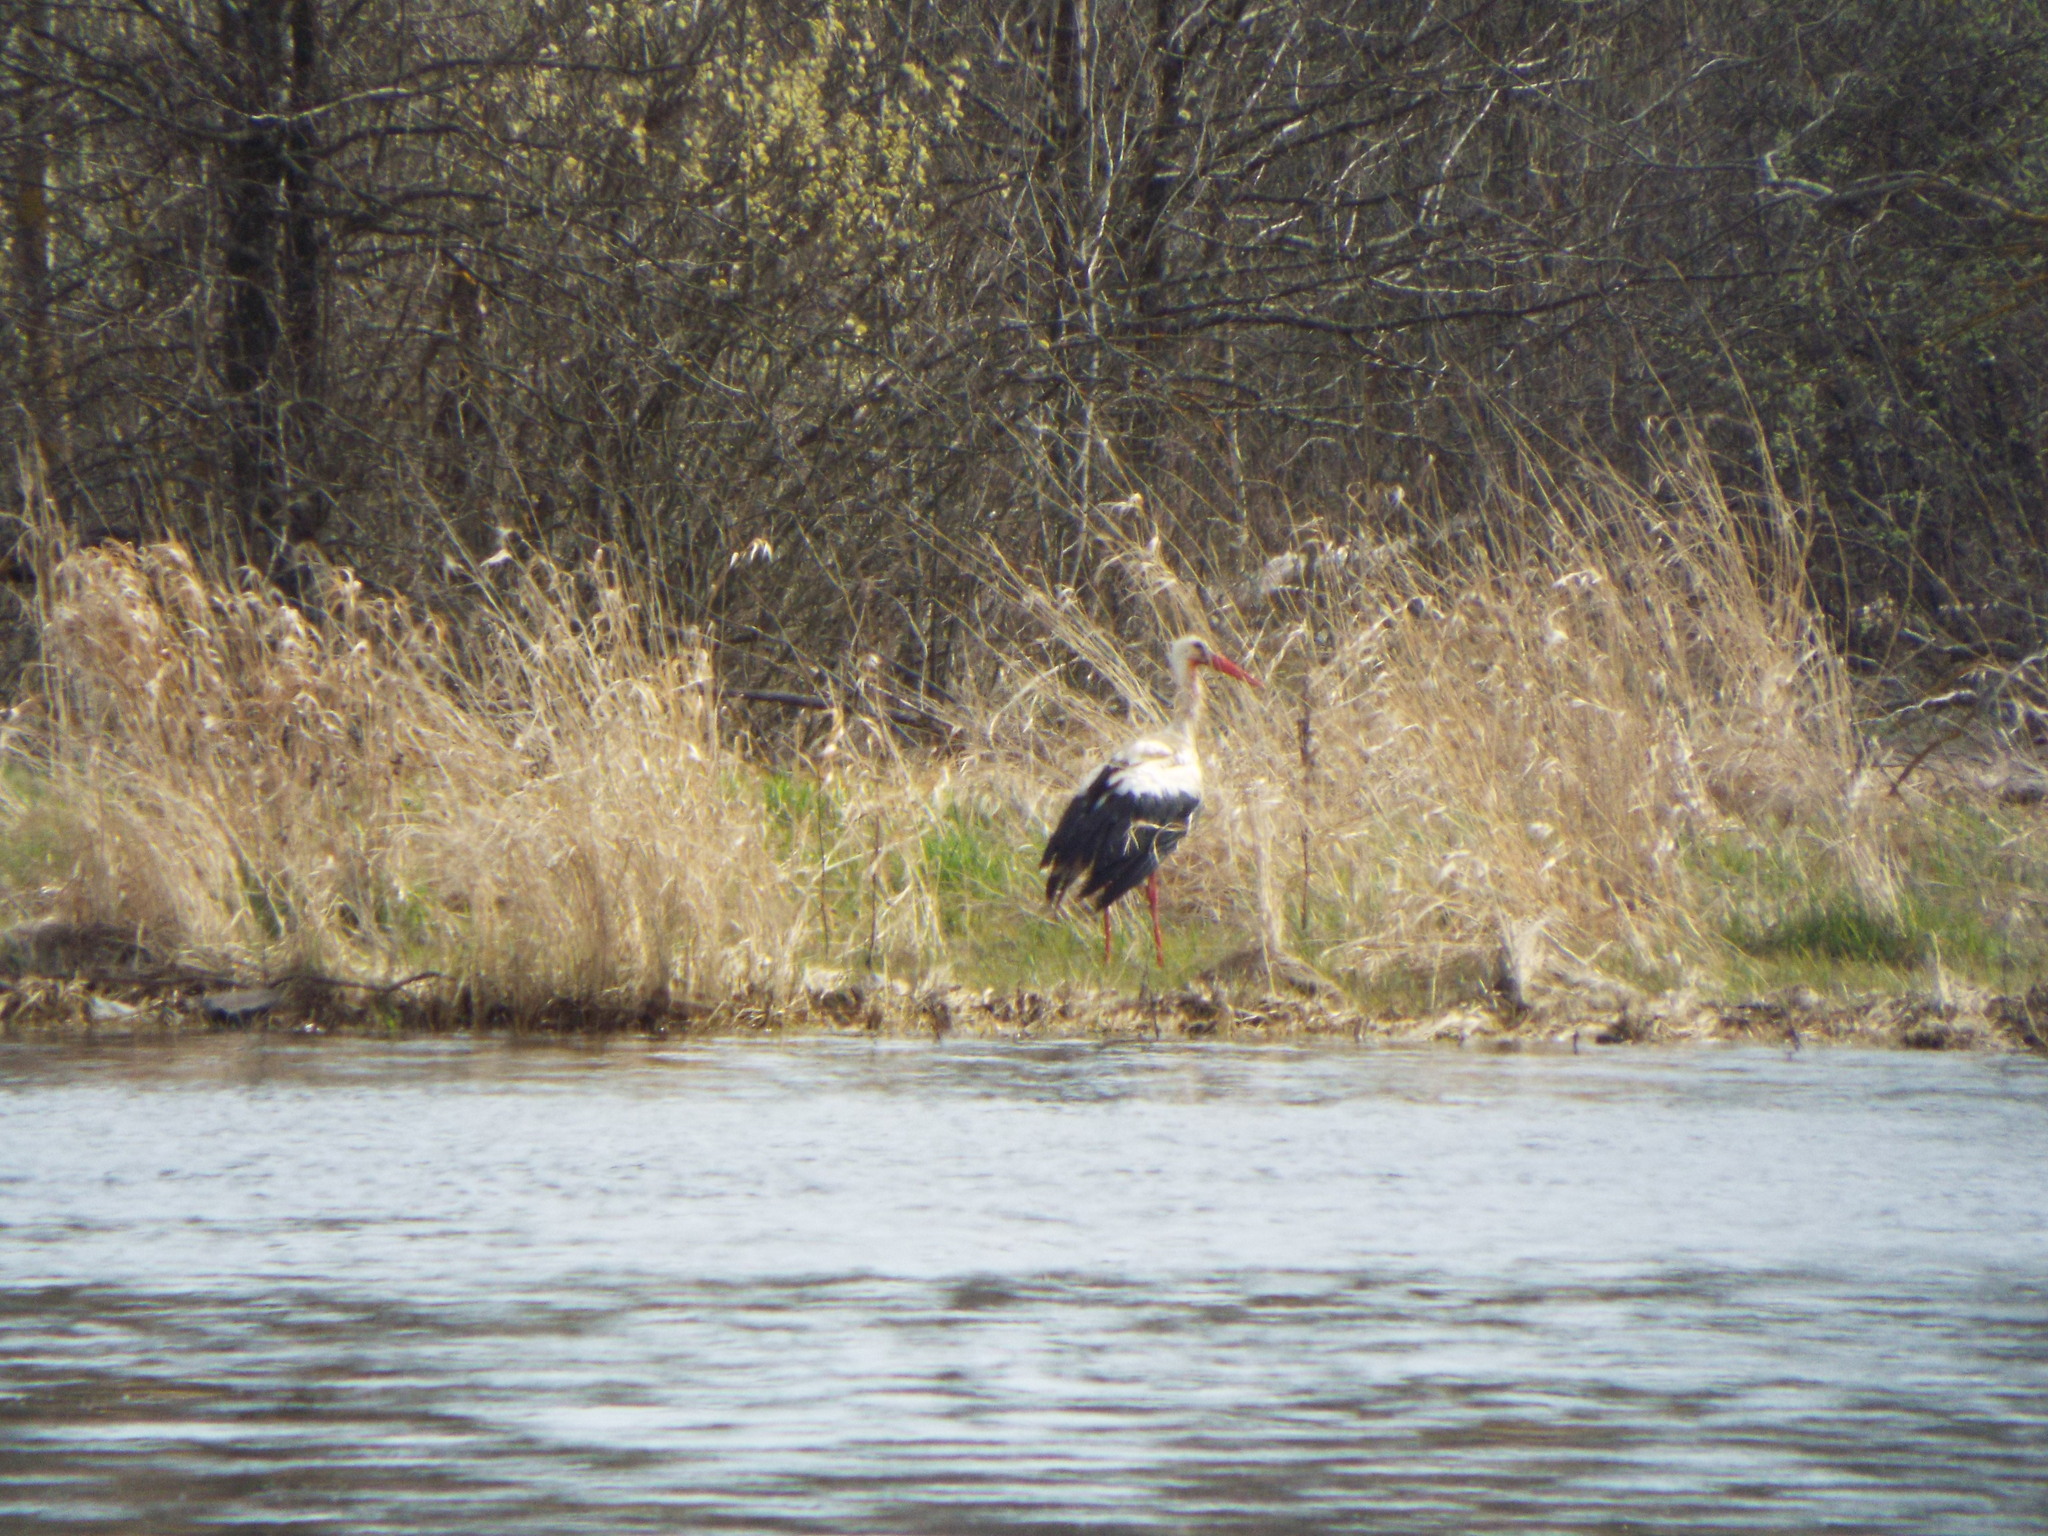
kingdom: Animalia
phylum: Chordata
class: Aves
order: Ciconiiformes
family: Ciconiidae
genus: Ciconia
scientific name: Ciconia ciconia
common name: White stork
